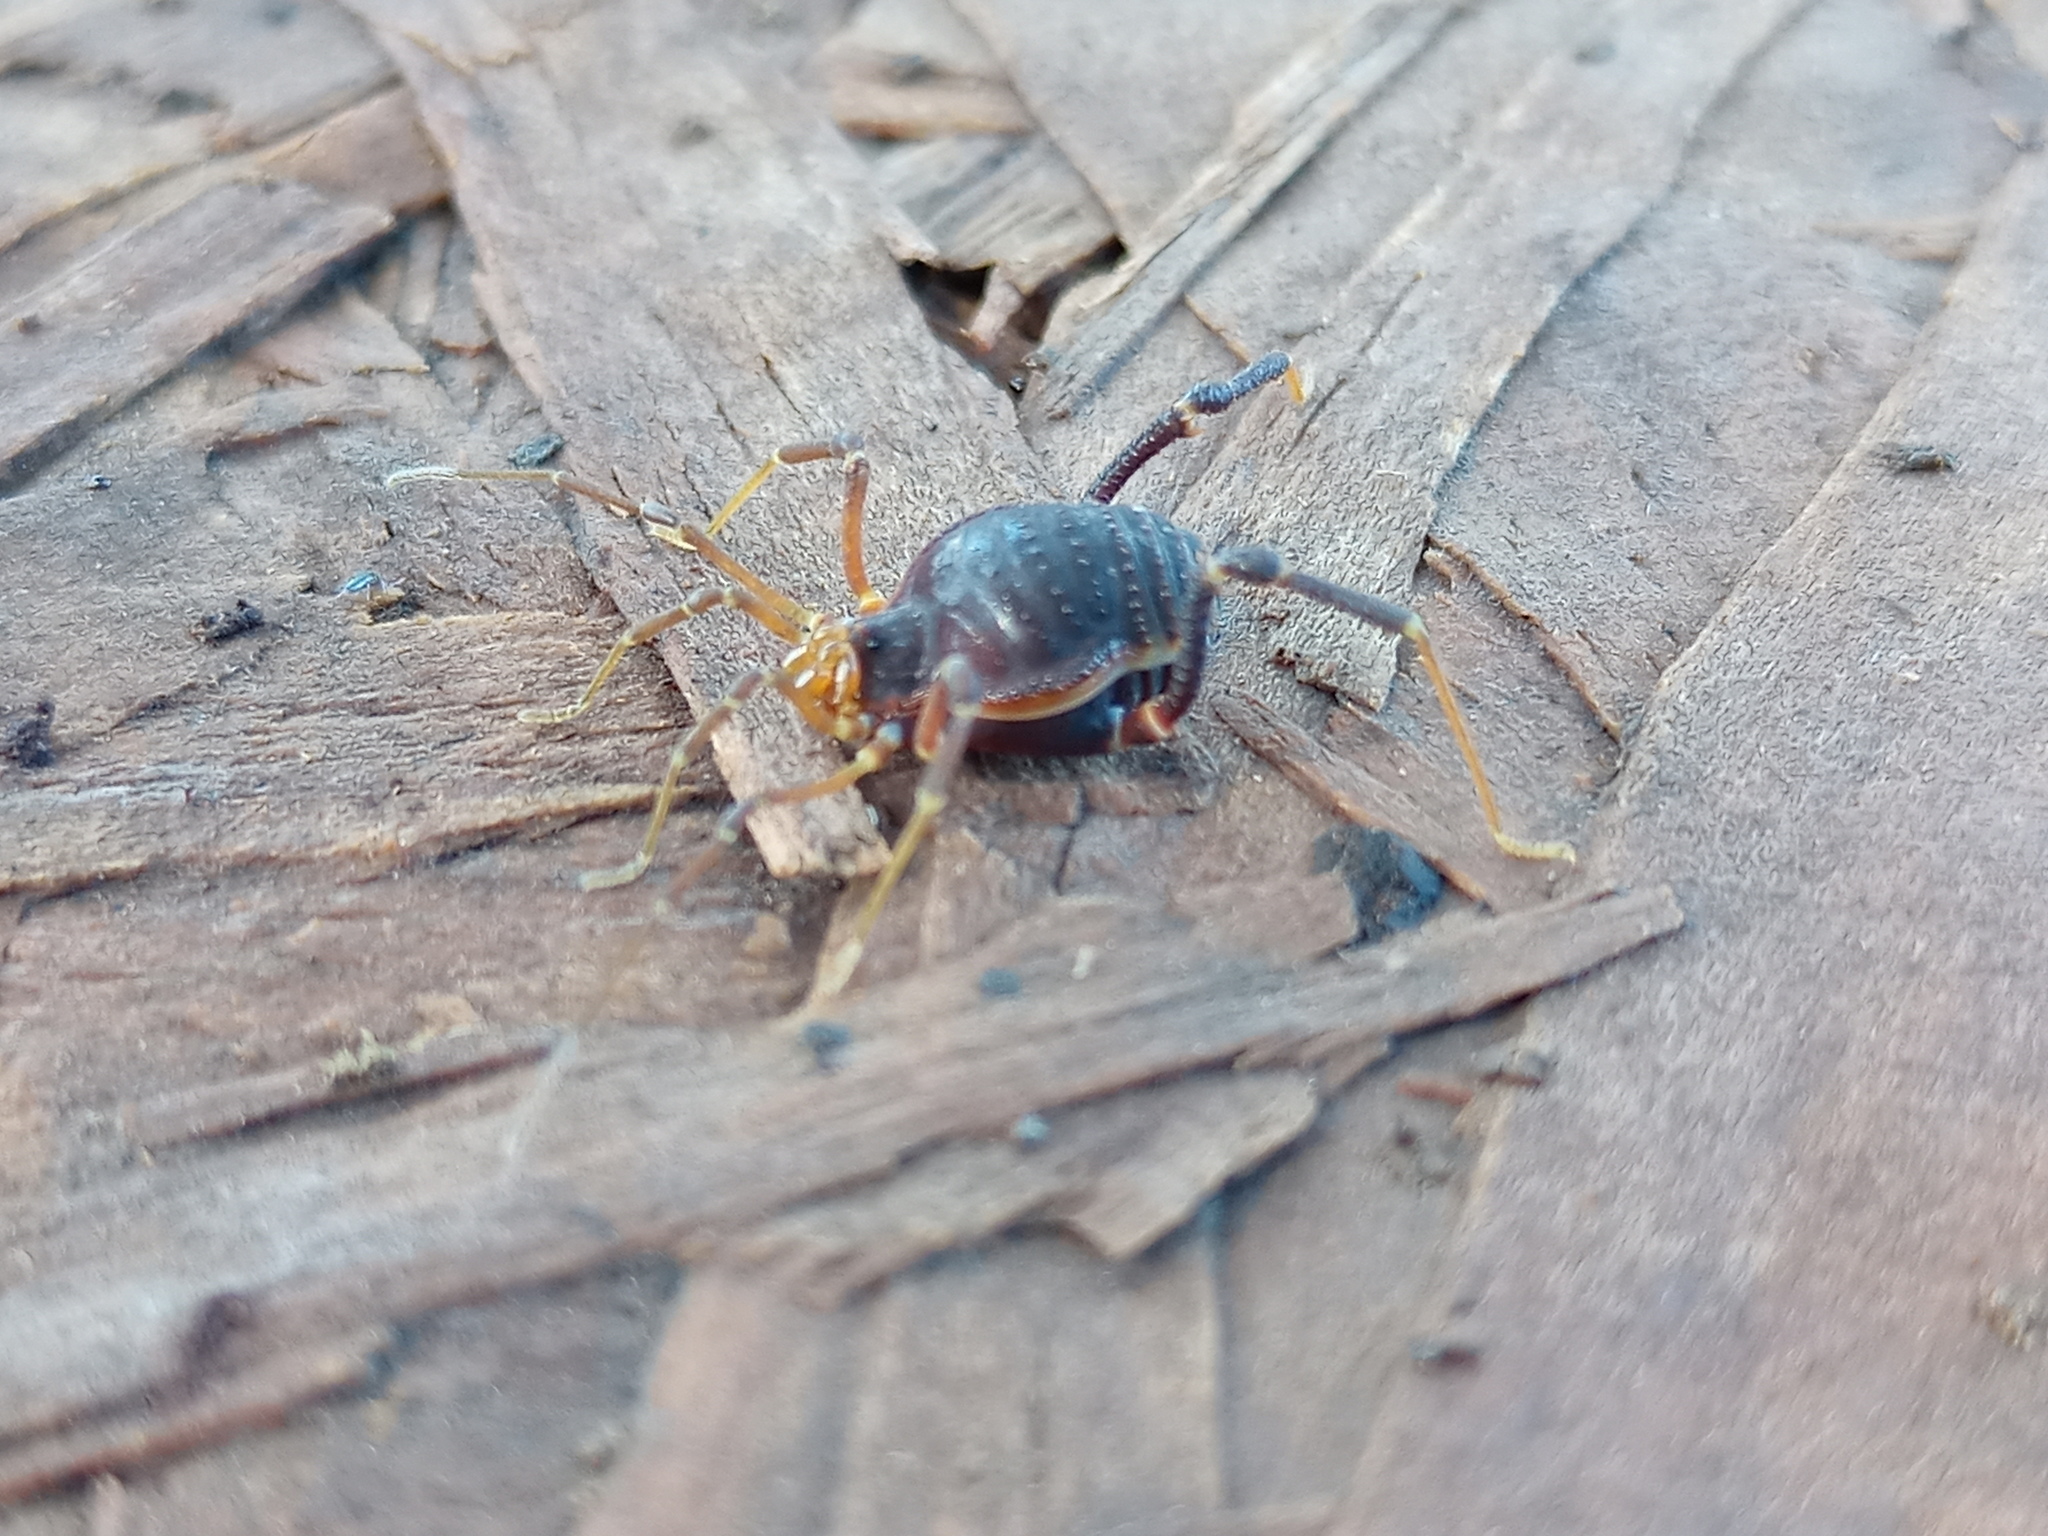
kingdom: Animalia
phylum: Arthropoda
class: Arachnida
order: Opiliones
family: Gonyleptidae
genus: Acanthopachylus
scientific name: Acanthopachylus robustus
